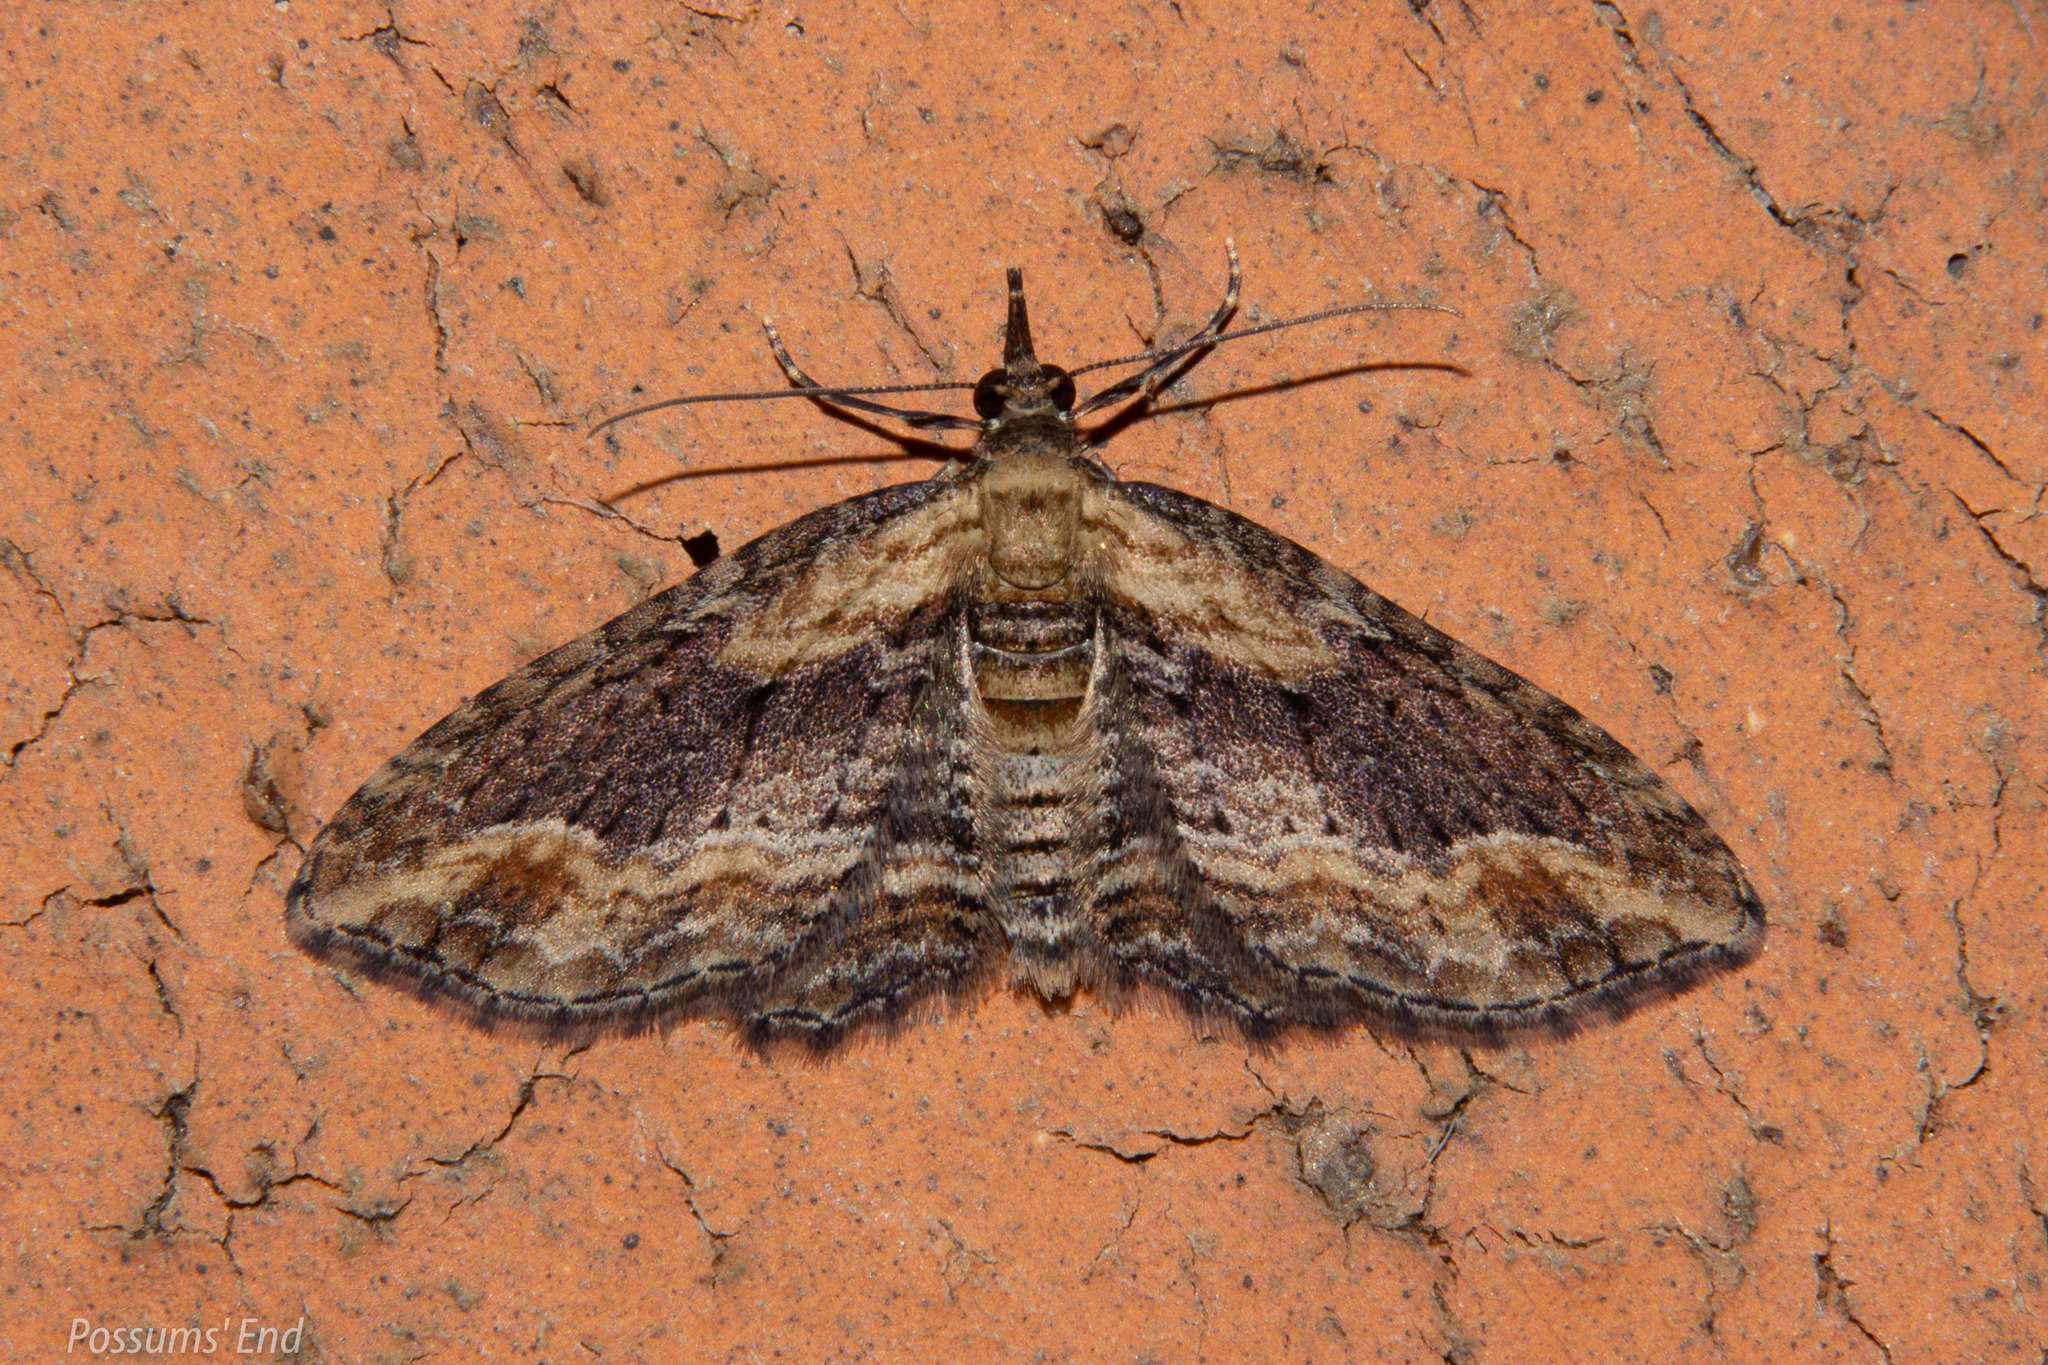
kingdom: Animalia
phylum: Arthropoda
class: Insecta
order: Lepidoptera
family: Geometridae
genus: Chloroclystis
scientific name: Chloroclystis filata
